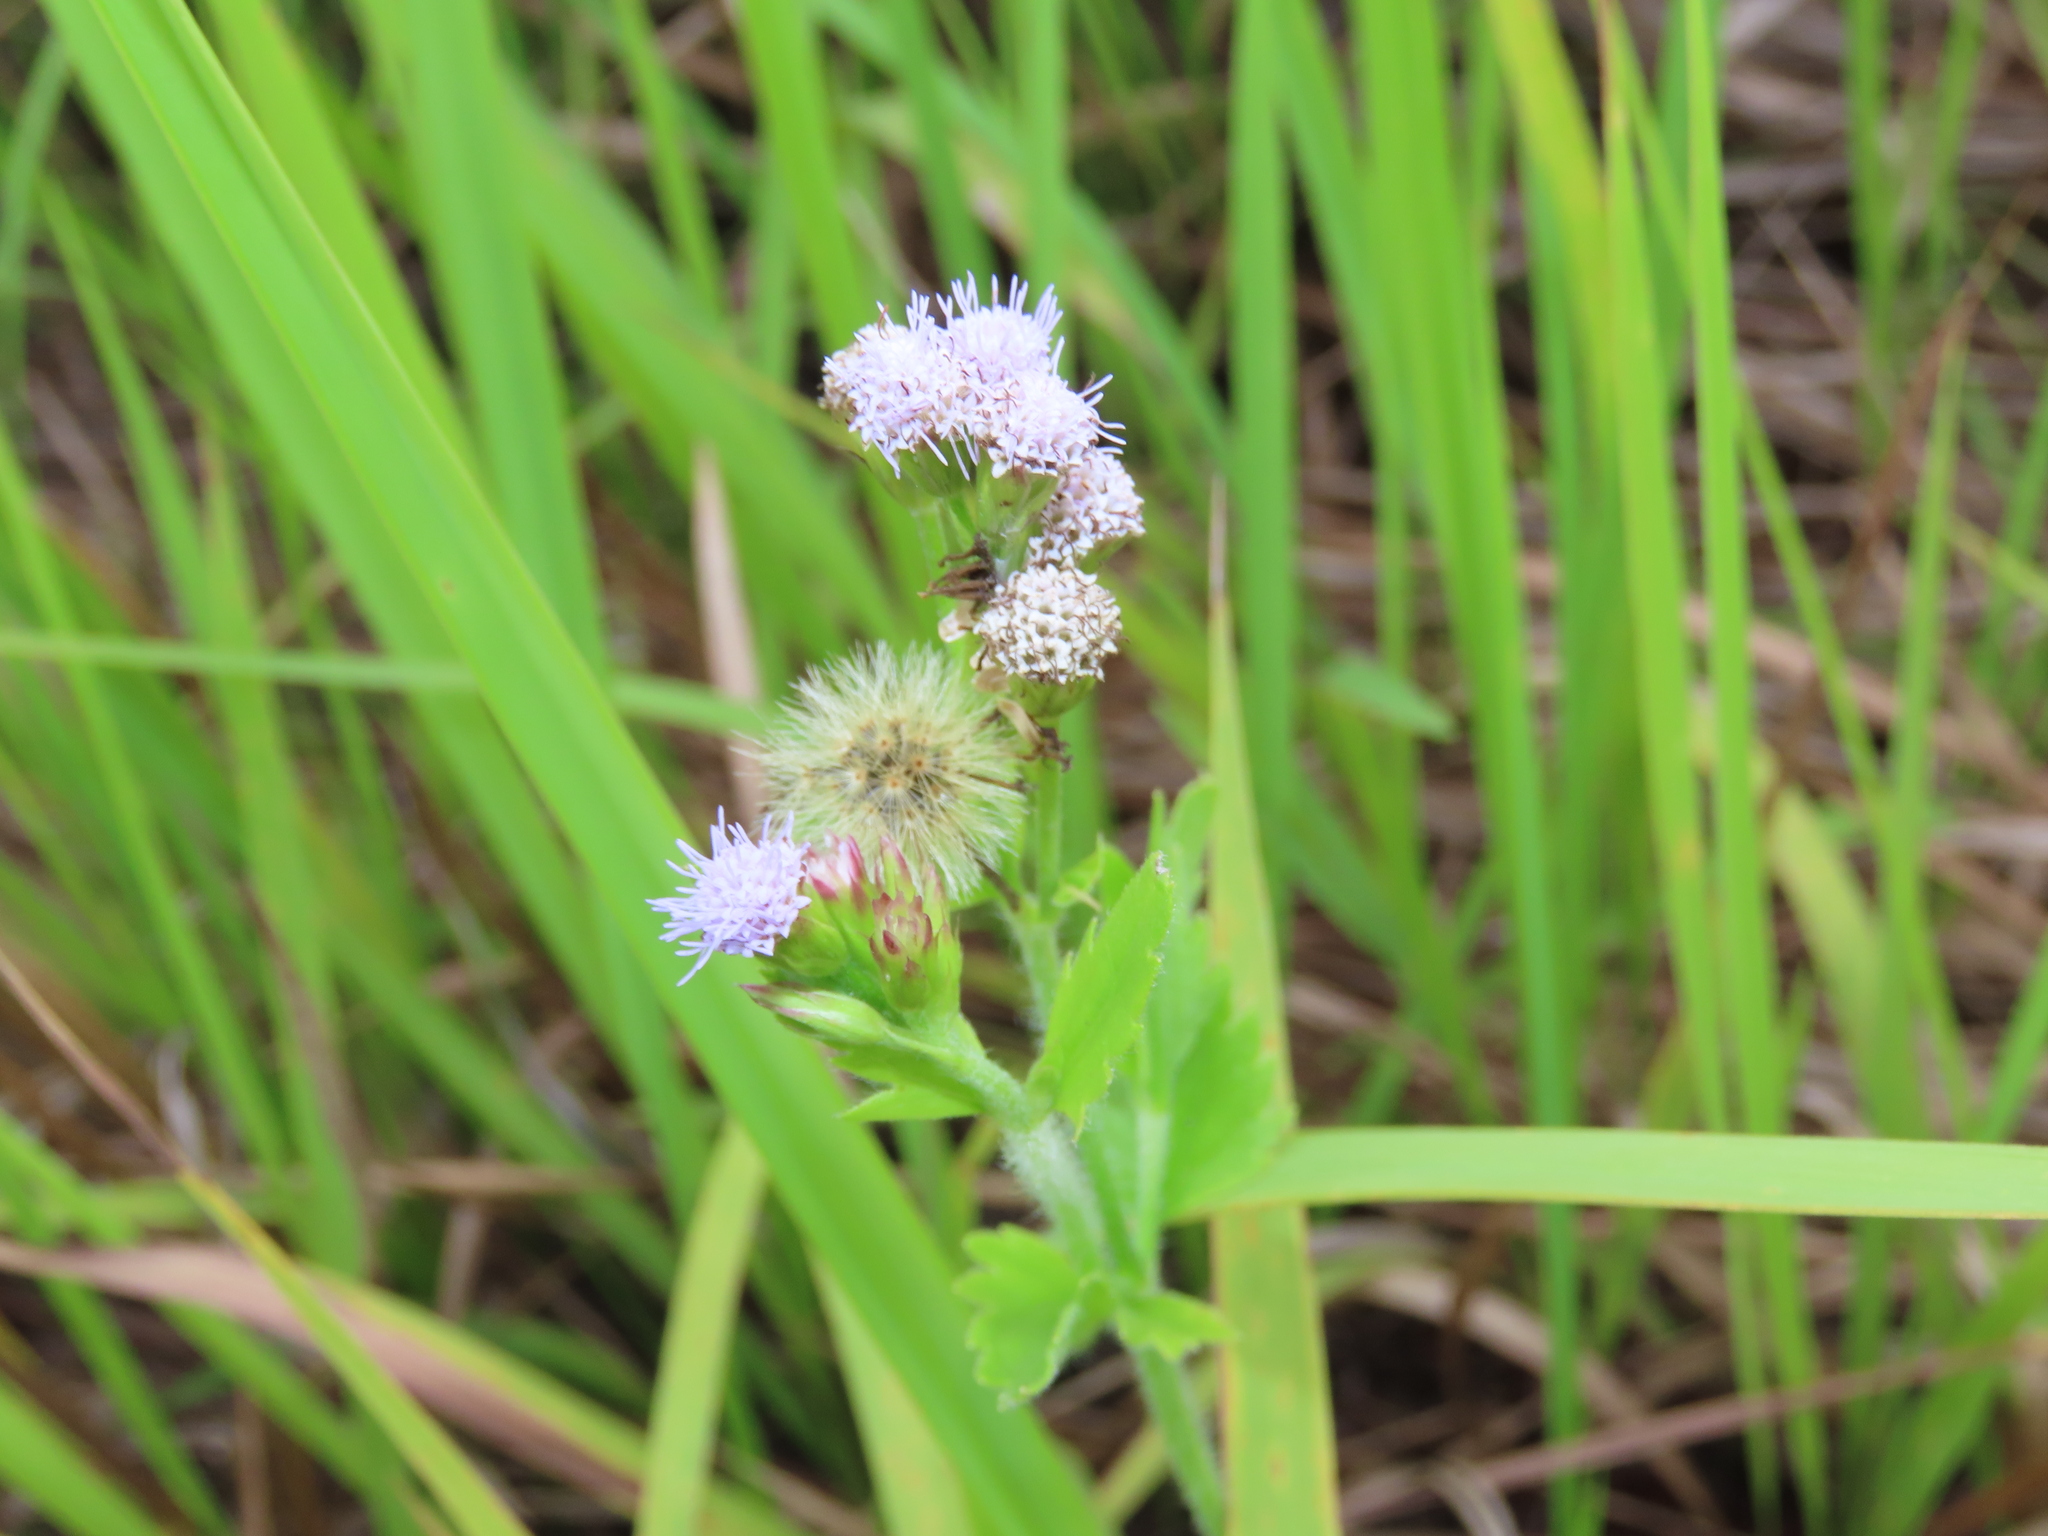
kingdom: Plantae
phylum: Tracheophyta
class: Magnoliopsida
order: Asterales
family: Asteraceae
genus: Praxelis
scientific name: Praxelis clematidea
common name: Praxelis
